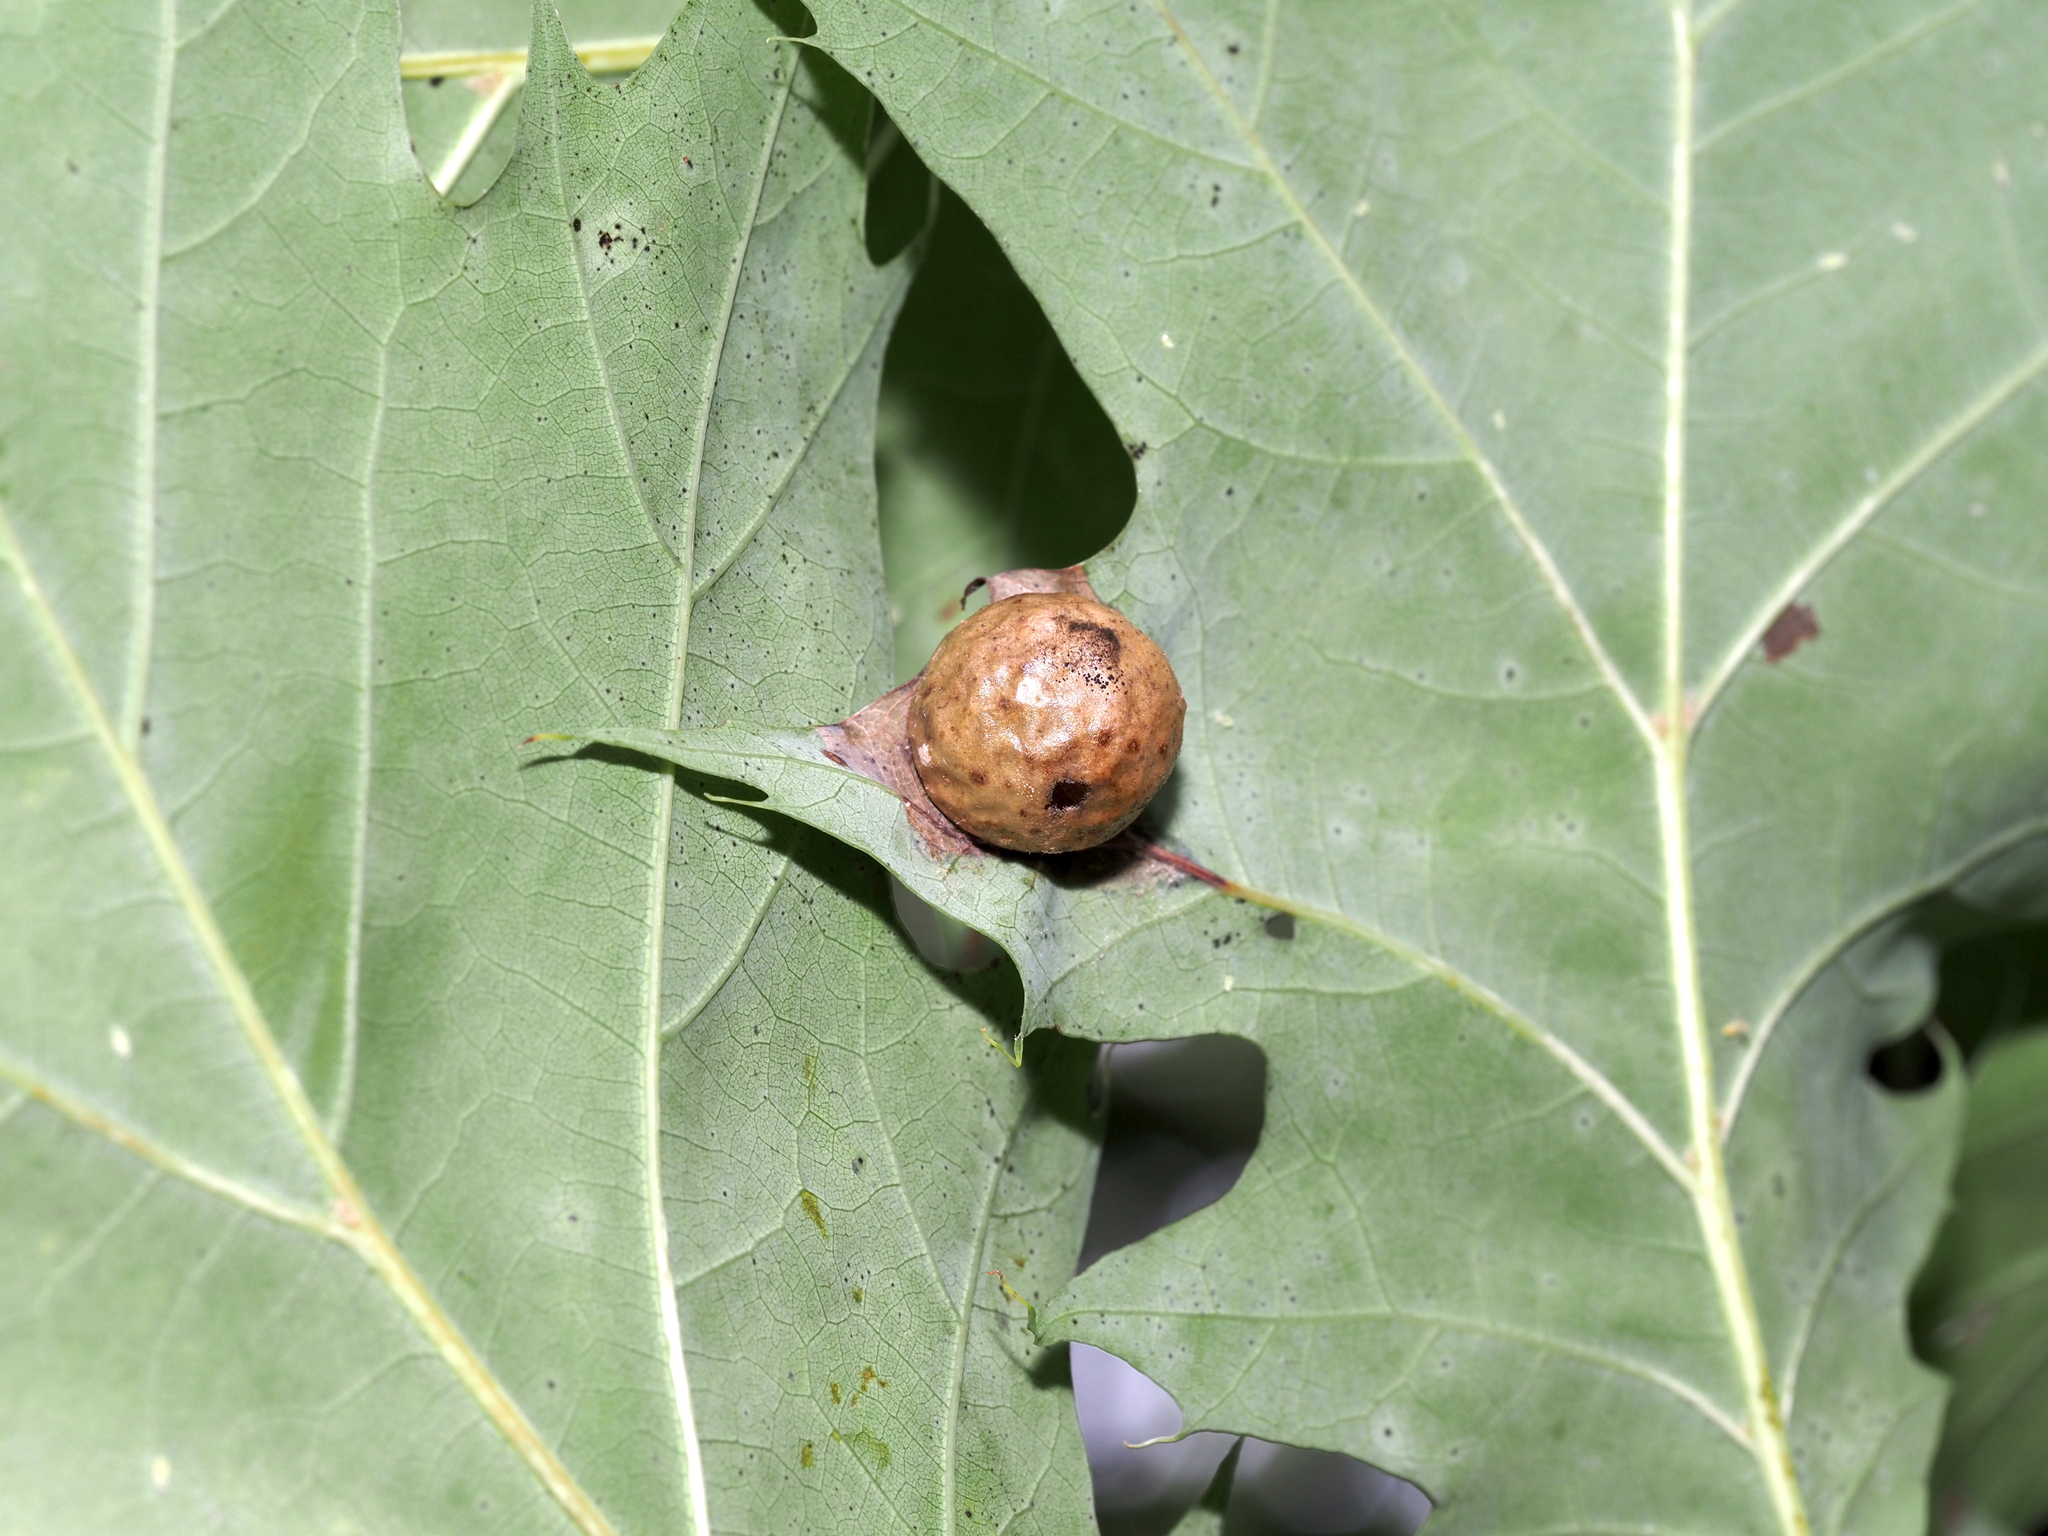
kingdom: Animalia
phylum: Arthropoda
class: Insecta
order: Hymenoptera
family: Cynipidae
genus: Amphibolips
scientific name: Amphibolips
